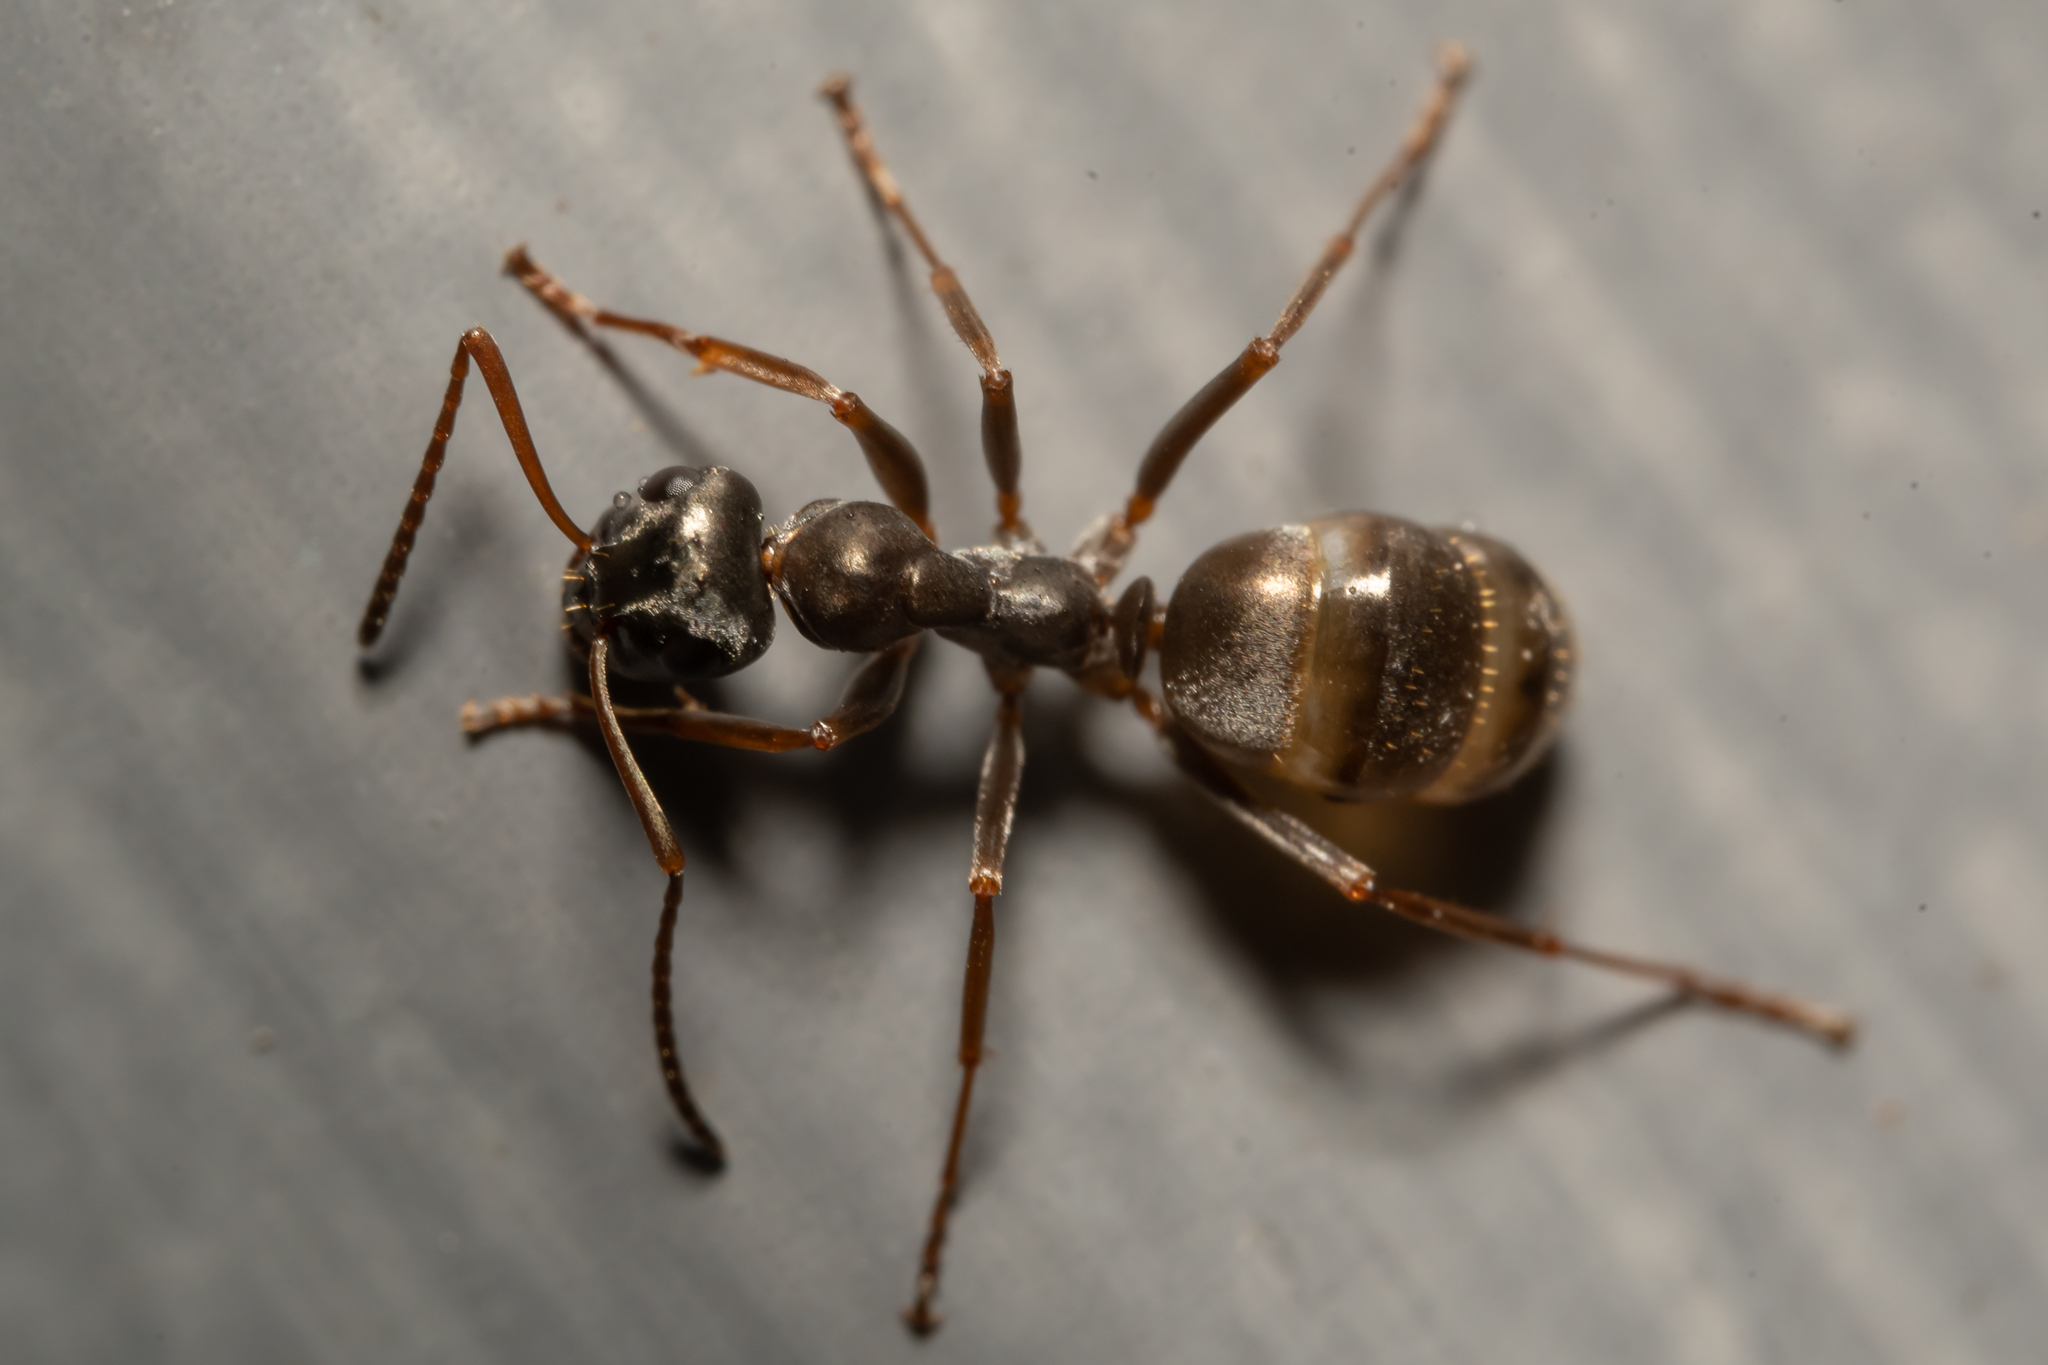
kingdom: Animalia
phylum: Arthropoda
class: Insecta
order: Hymenoptera
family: Formicidae
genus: Formica
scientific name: Formica fusca
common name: Silky ant
